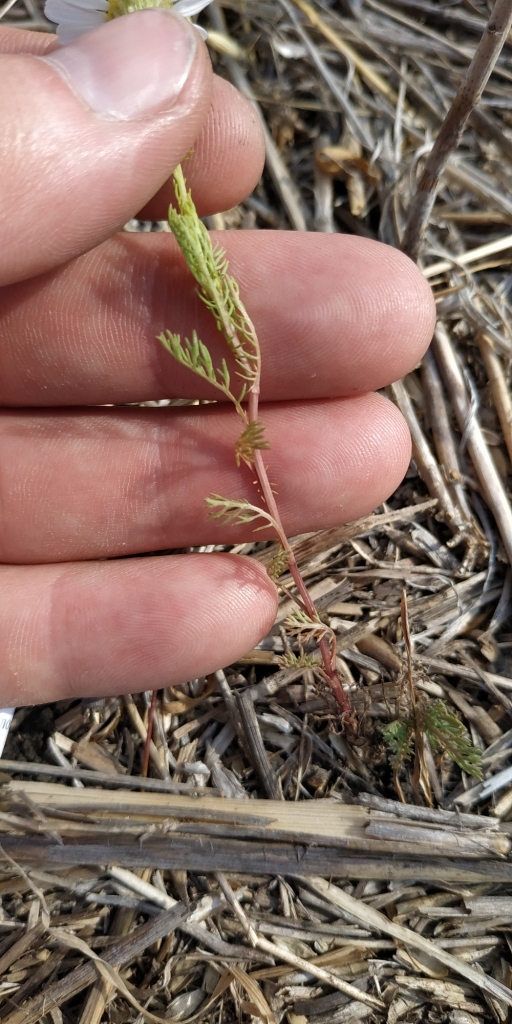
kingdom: Plantae
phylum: Tracheophyta
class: Magnoliopsida
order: Asterales
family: Asteraceae
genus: Tripleurospermum
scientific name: Tripleurospermum inodorum
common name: Scentless mayweed
